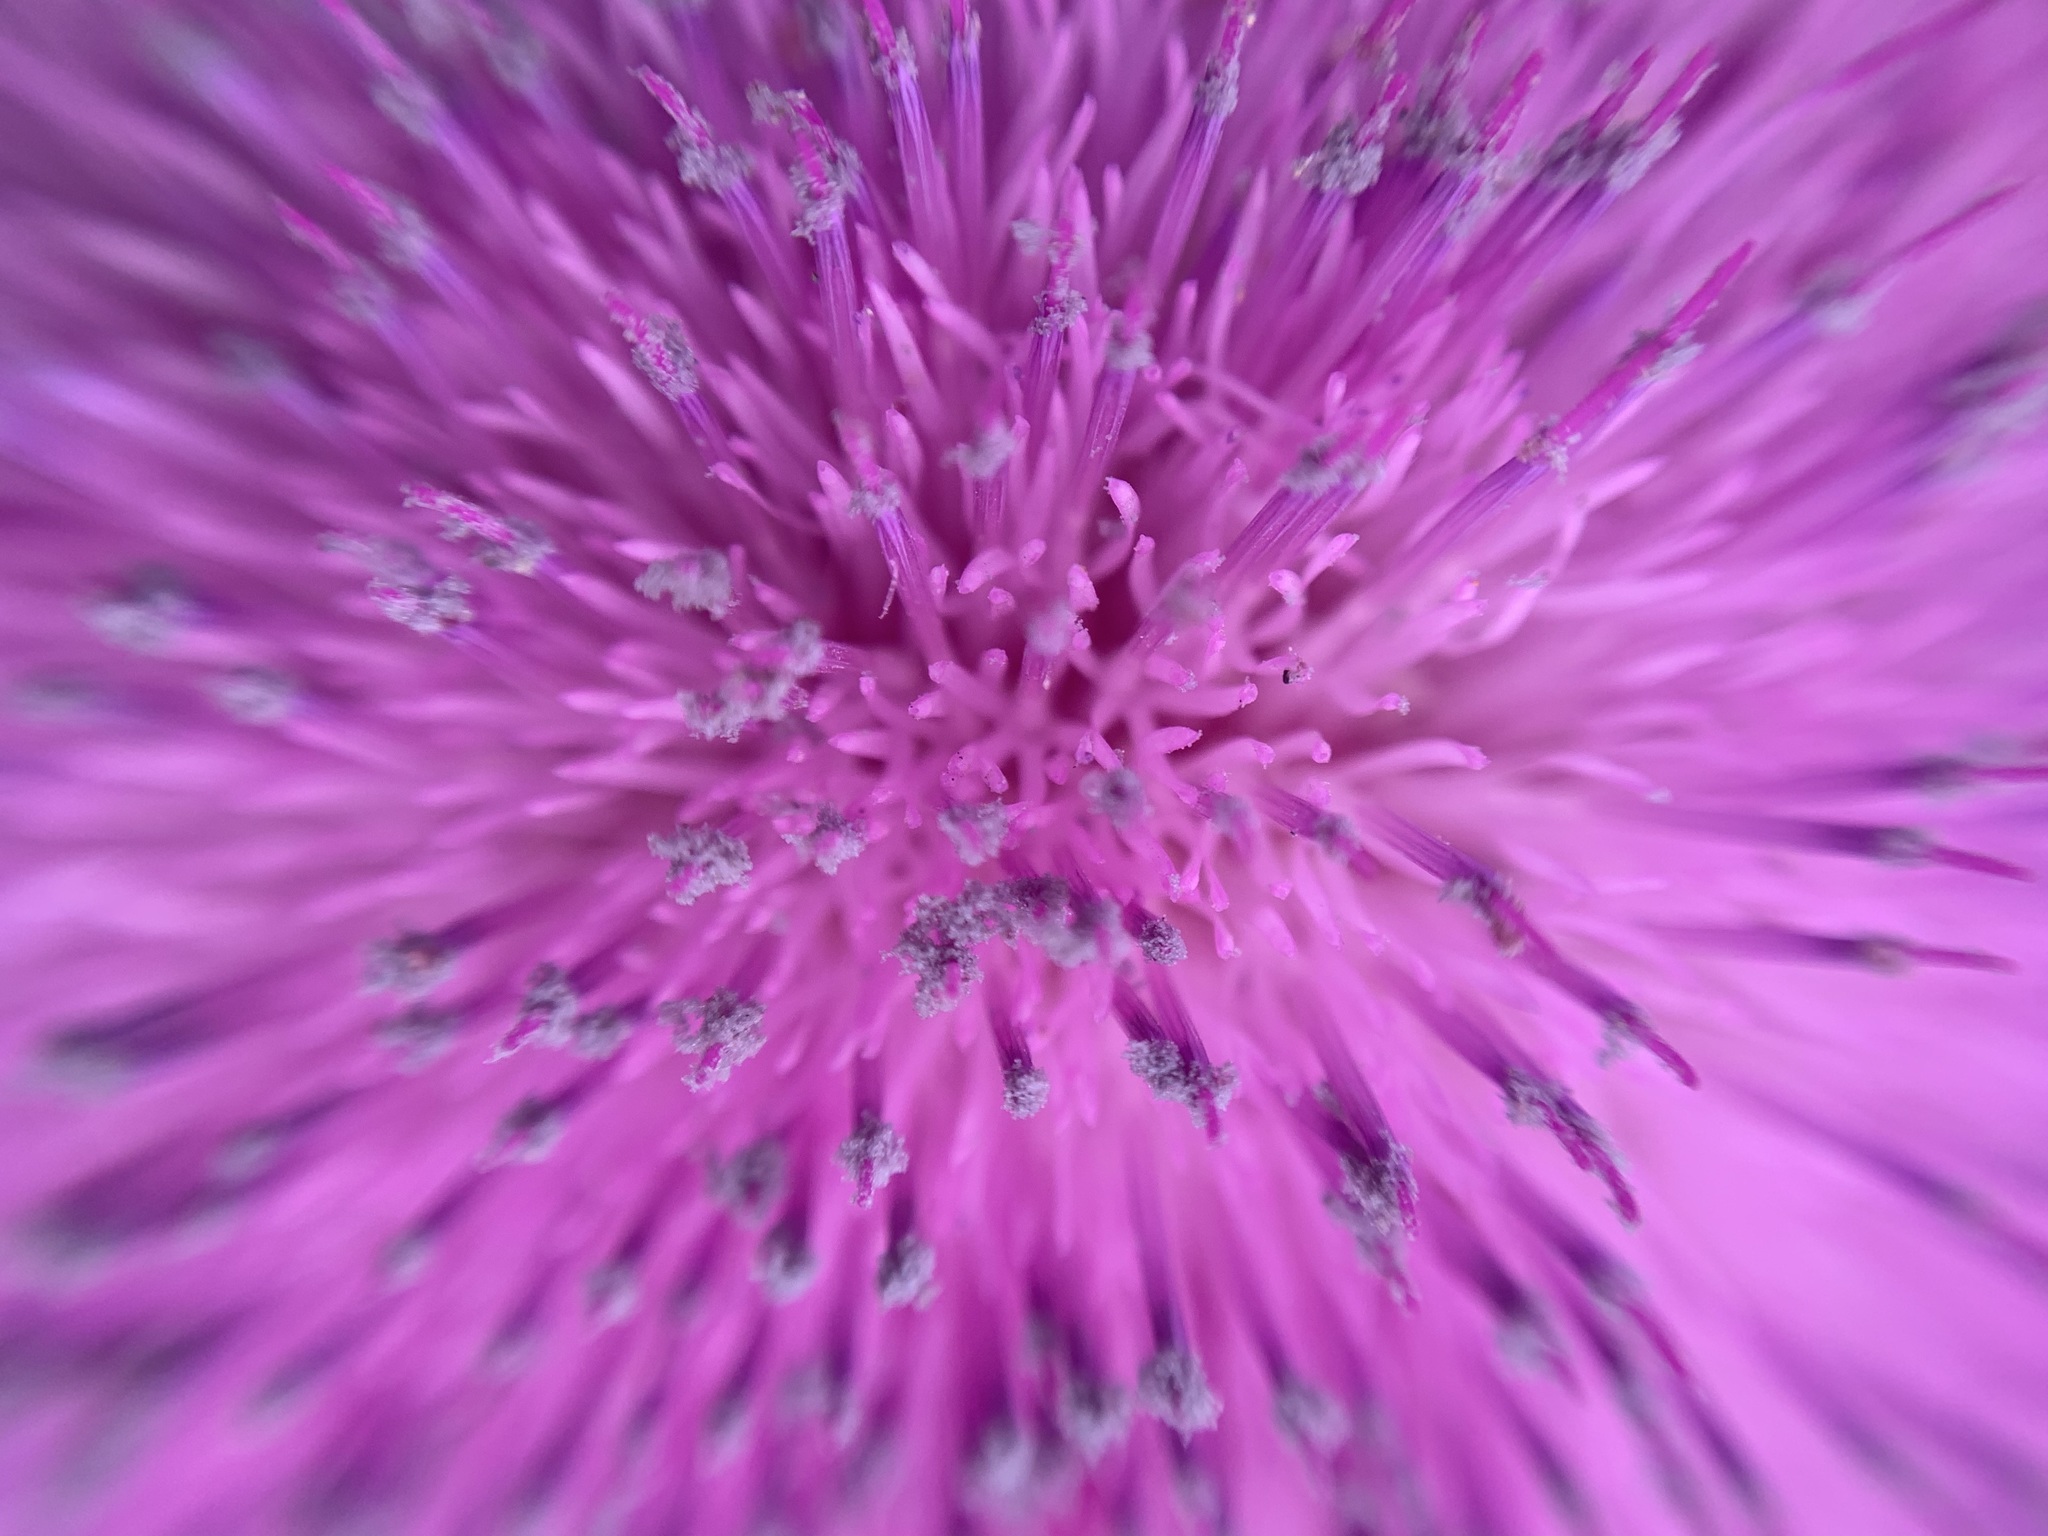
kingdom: Plantae
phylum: Tracheophyta
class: Magnoliopsida
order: Asterales
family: Asteraceae
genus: Carduus
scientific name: Carduus nutans
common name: Musk thistle
